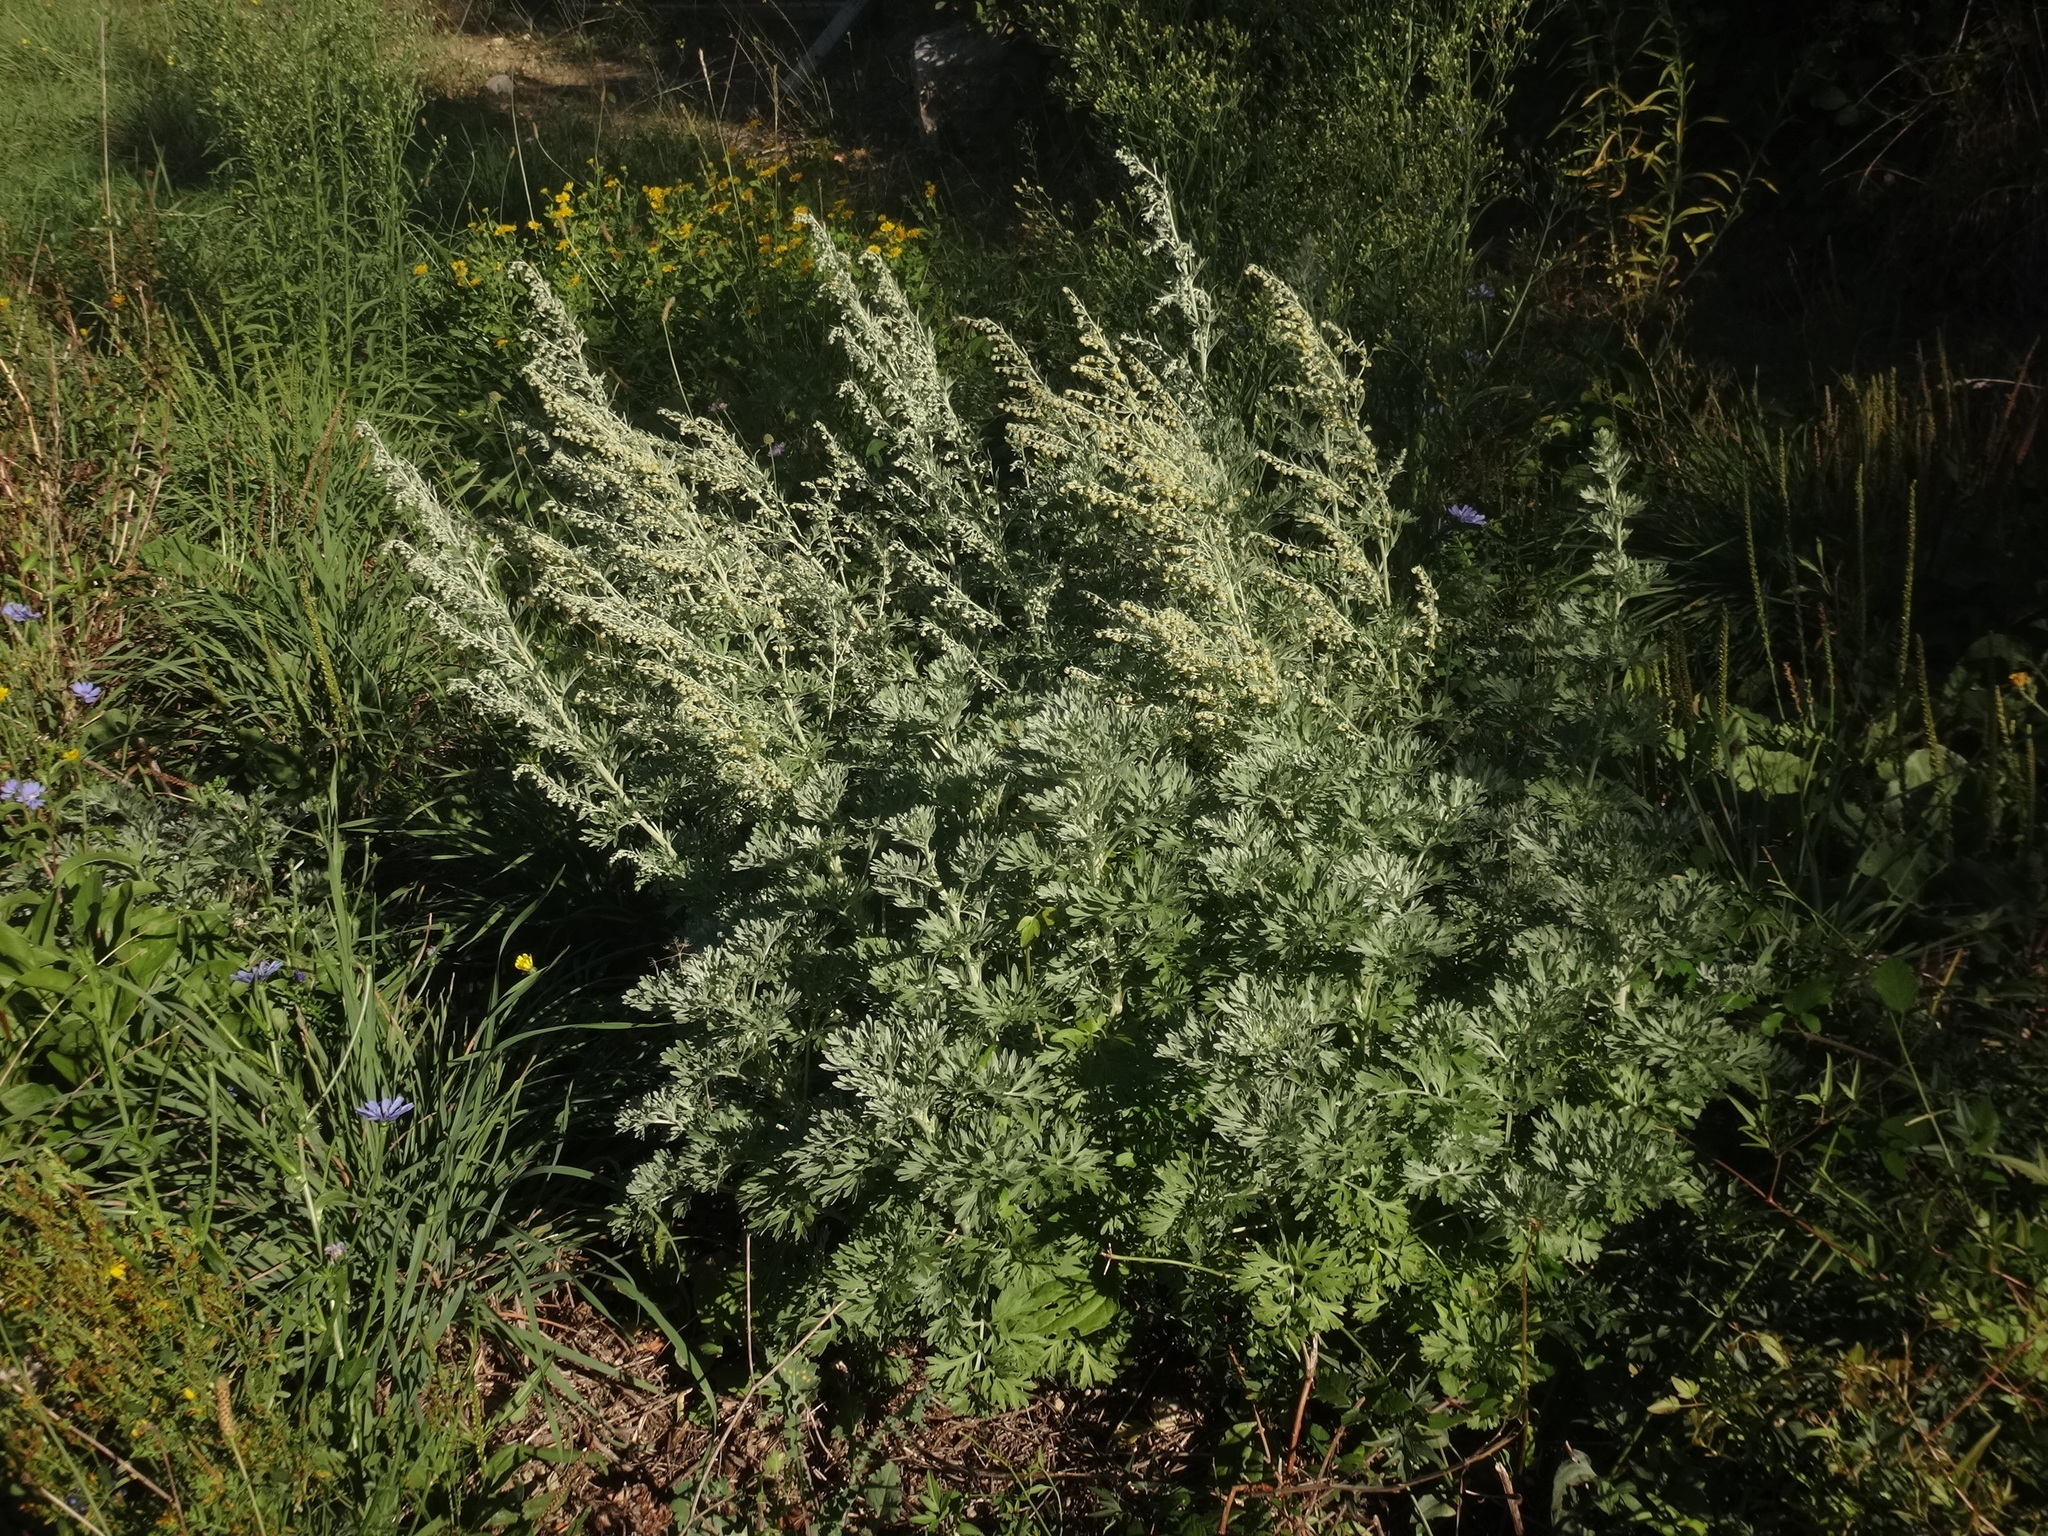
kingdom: Plantae
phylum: Tracheophyta
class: Magnoliopsida
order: Asterales
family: Asteraceae
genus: Artemisia
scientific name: Artemisia absinthium
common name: Wormwood
